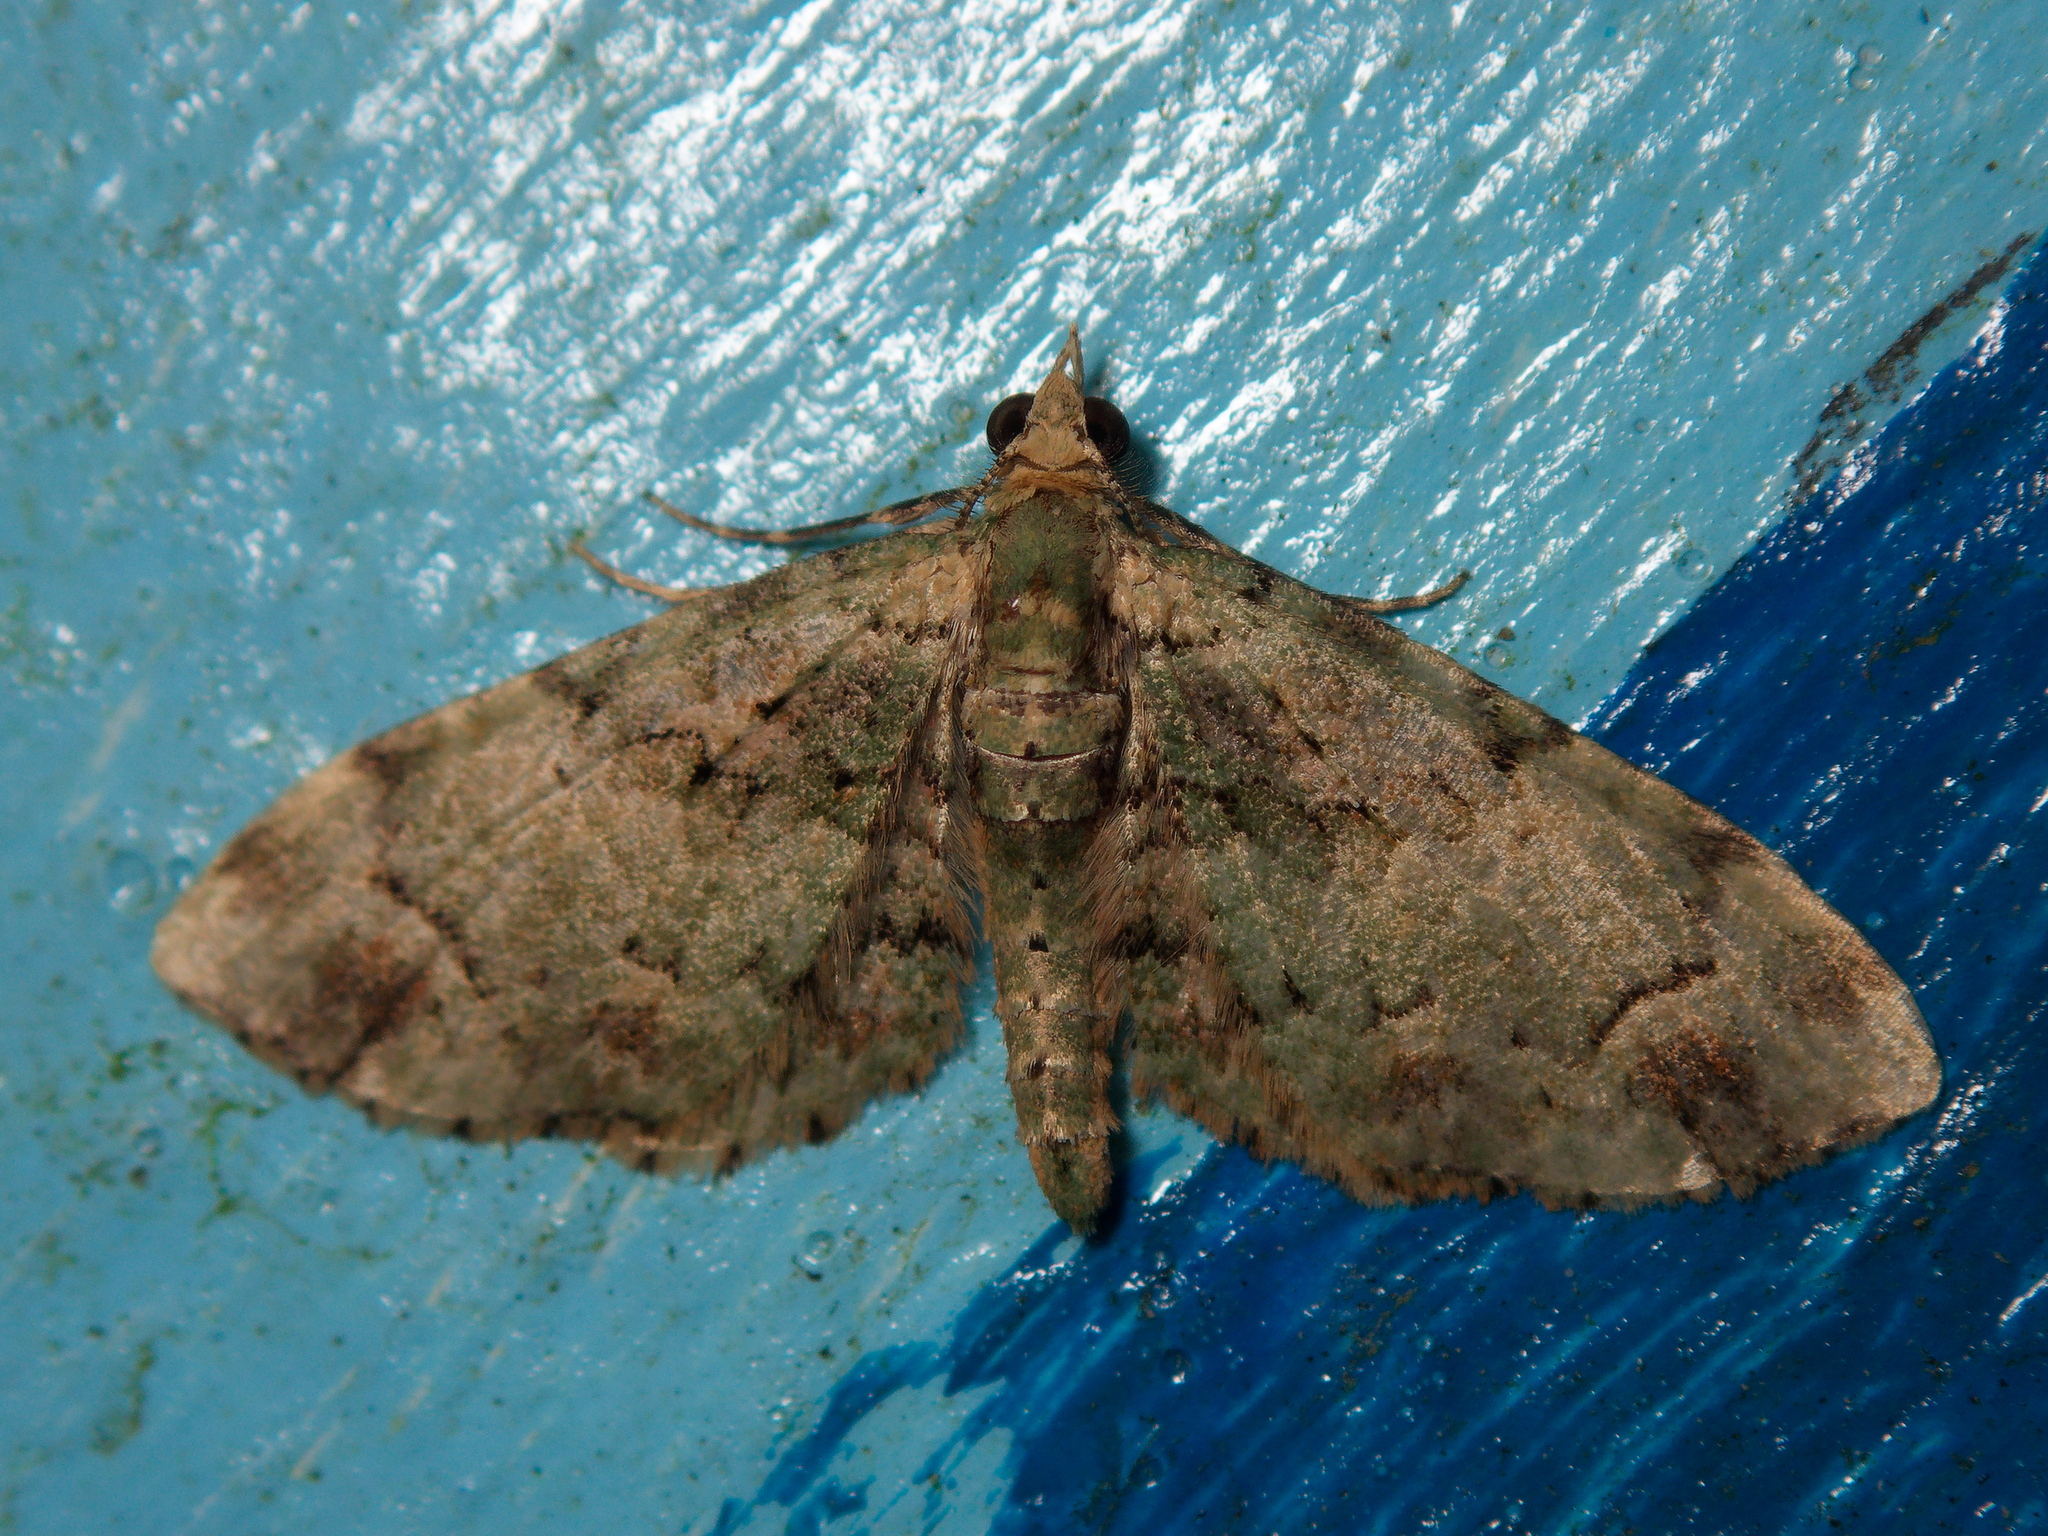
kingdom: Animalia
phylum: Arthropoda
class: Insecta
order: Lepidoptera
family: Geometridae
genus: Idaea
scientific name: Idaea mutanda
